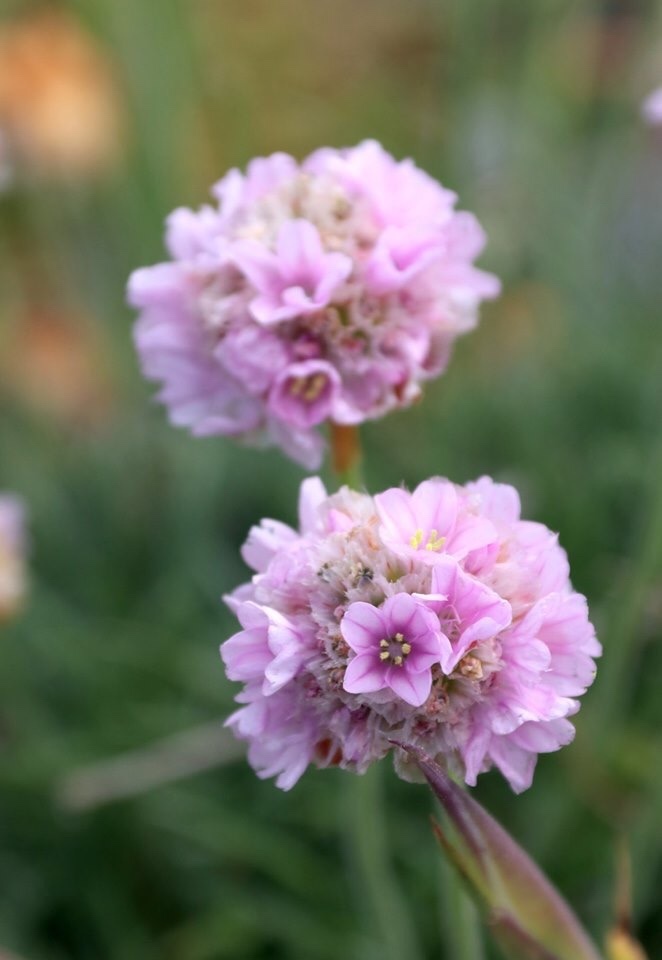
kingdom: Plantae
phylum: Tracheophyta
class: Magnoliopsida
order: Caryophyllales
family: Plumbaginaceae
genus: Armeria
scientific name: Armeria maritima
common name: Thrift
